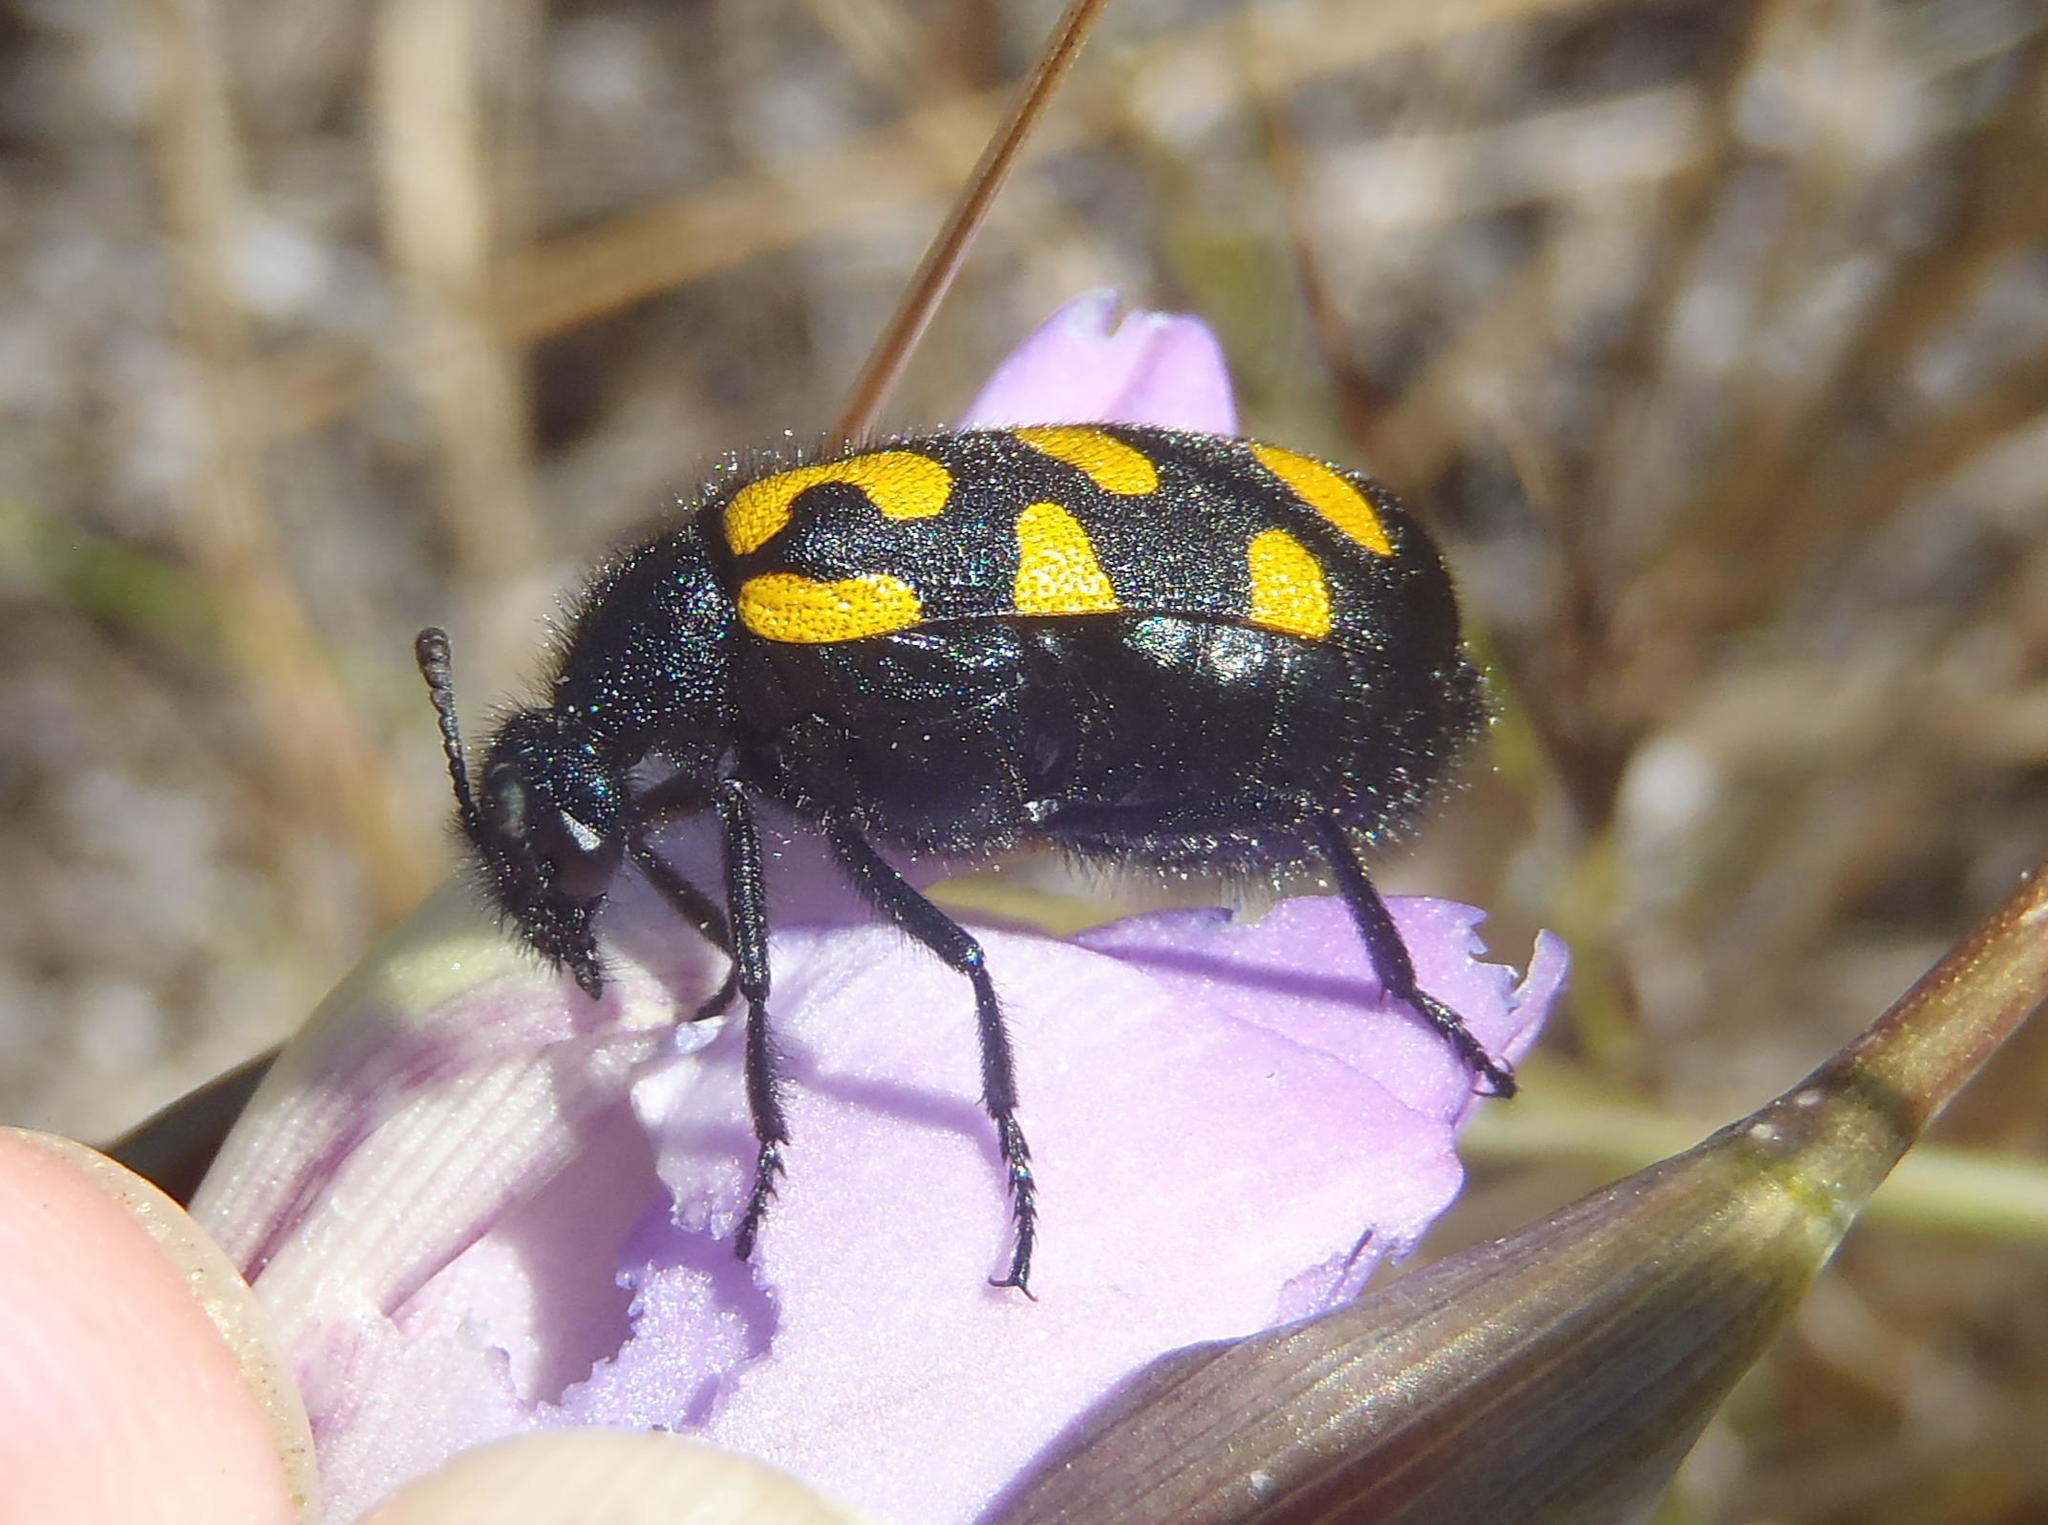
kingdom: Animalia
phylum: Arthropoda
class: Insecta
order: Coleoptera
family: Meloidae
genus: Ceroctis
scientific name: Ceroctis capensis
